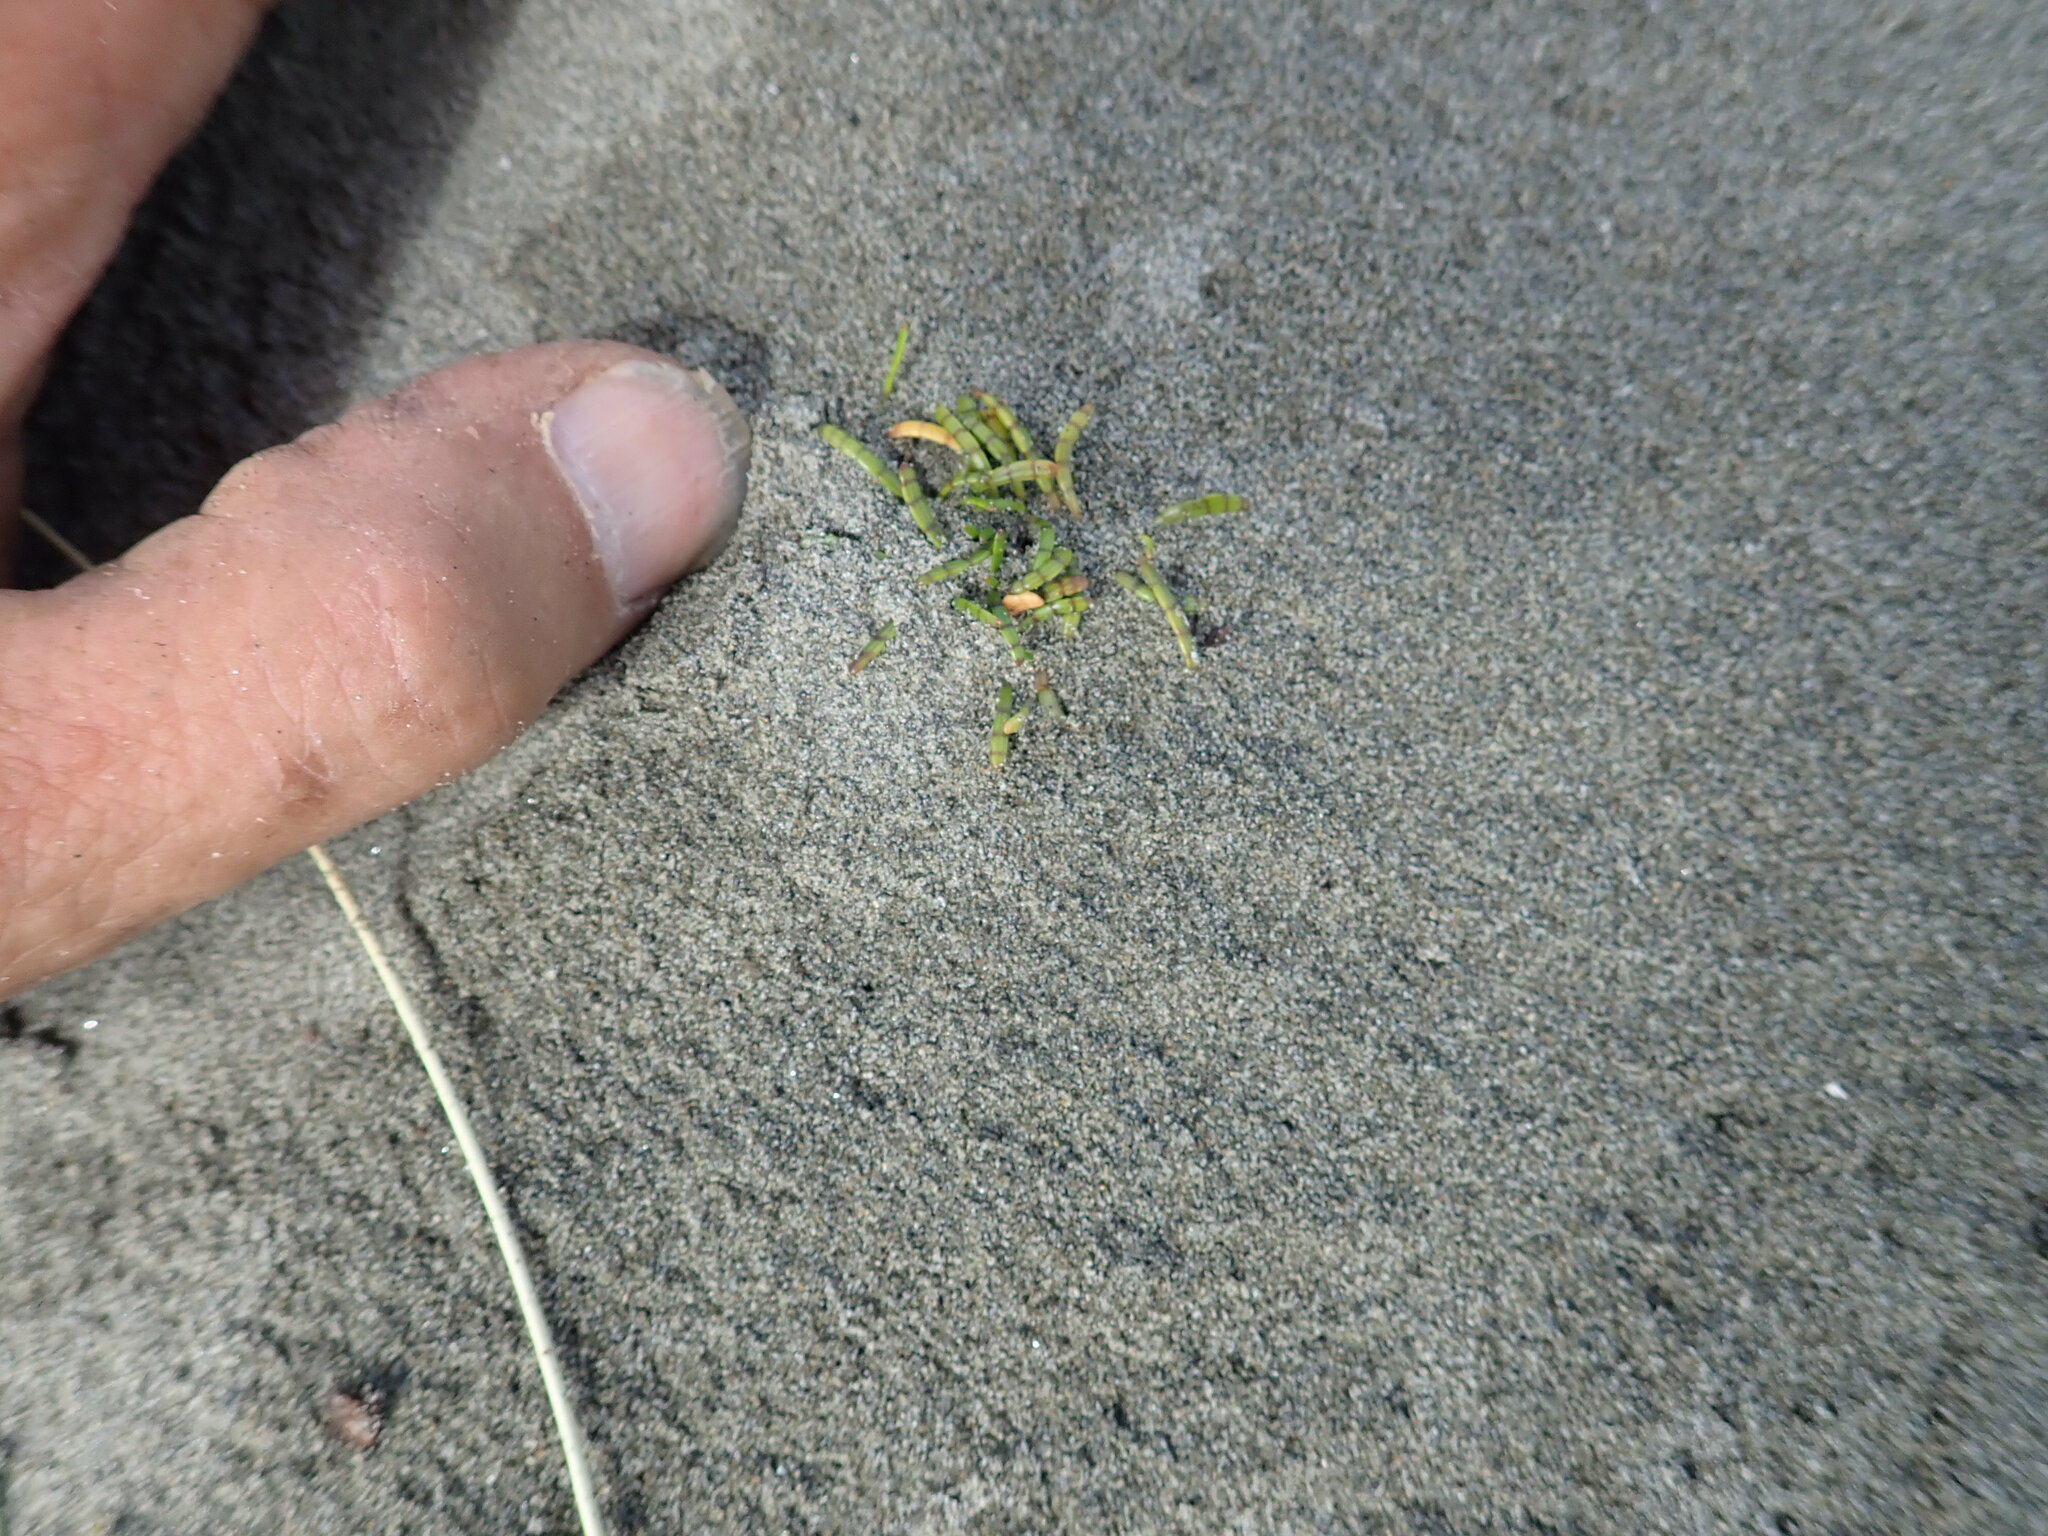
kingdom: Plantae
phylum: Tracheophyta
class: Magnoliopsida
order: Apiales
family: Apiaceae
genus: Lilaeopsis
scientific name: Lilaeopsis novae-zelandiae
